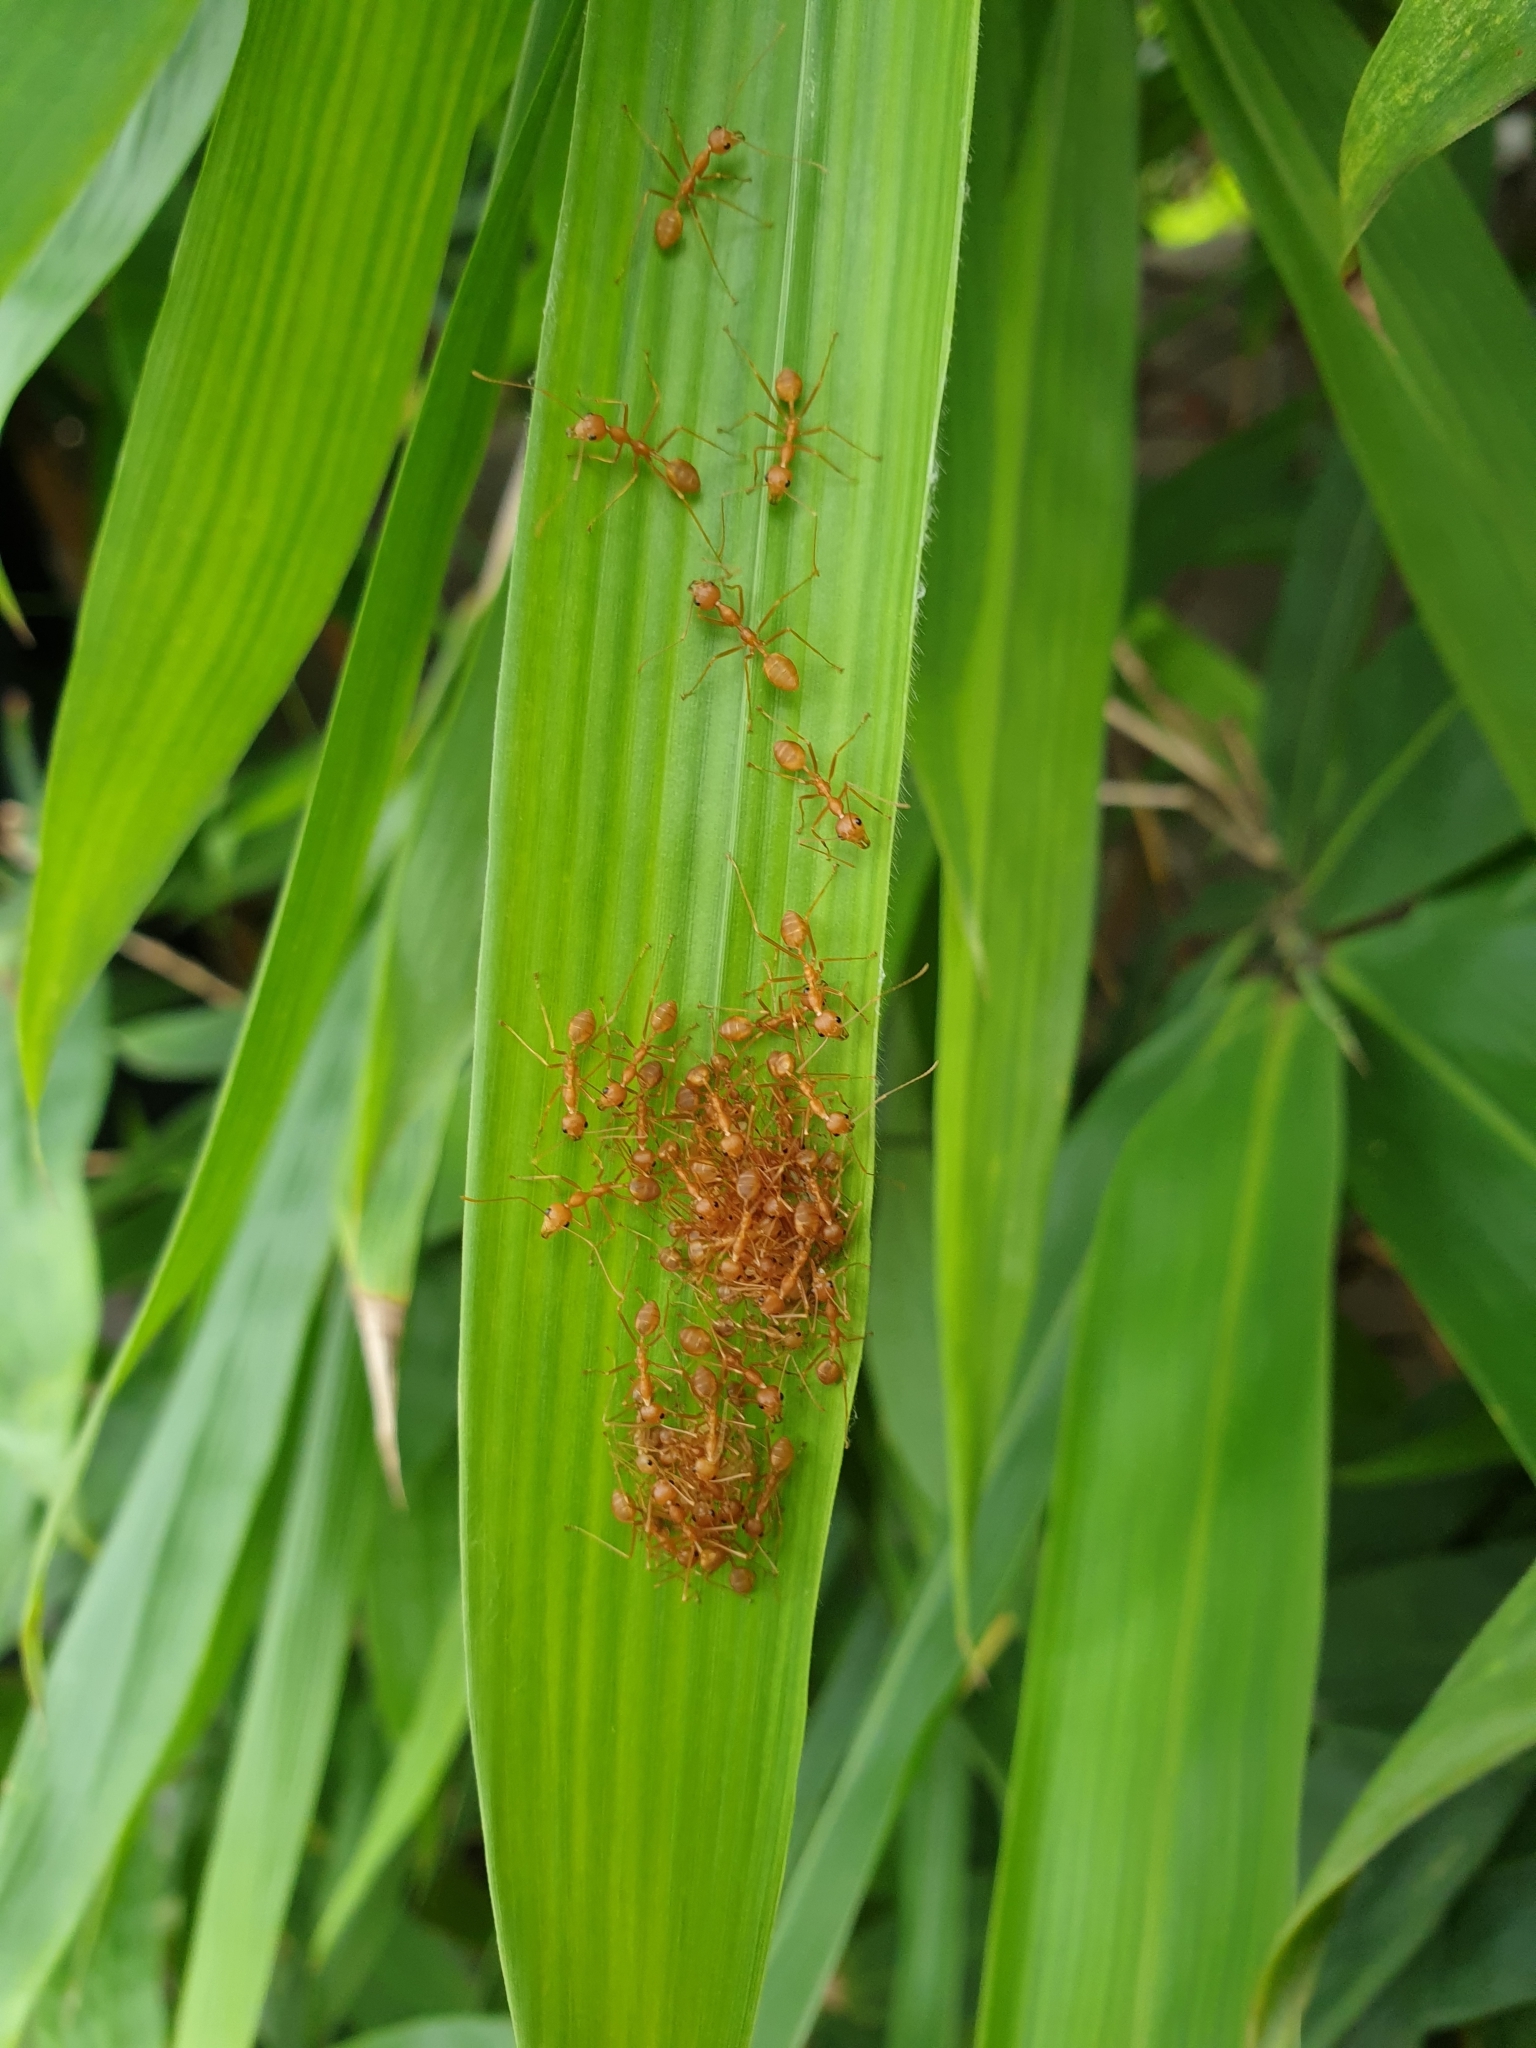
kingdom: Animalia
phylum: Arthropoda
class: Insecta
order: Hymenoptera
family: Formicidae
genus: Oecophylla
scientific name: Oecophylla smaragdina
